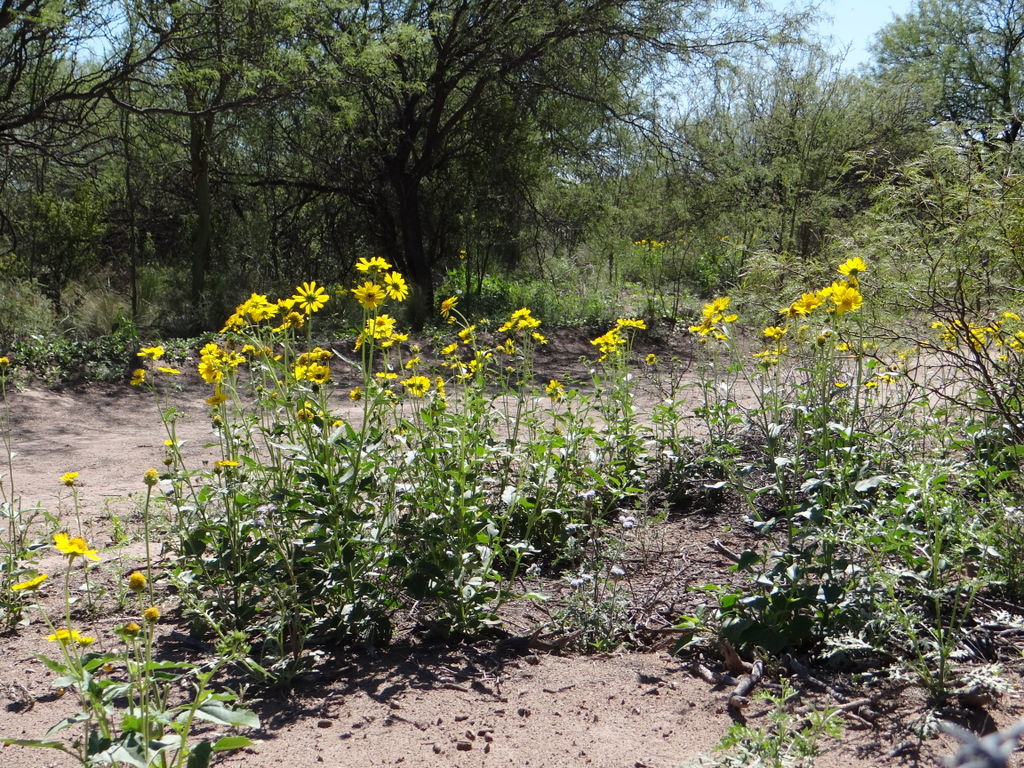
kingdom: Plantae
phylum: Tracheophyta
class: Magnoliopsida
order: Asterales
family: Asteraceae
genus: Verbesina
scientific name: Verbesina encelioides
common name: Golden crownbeard
